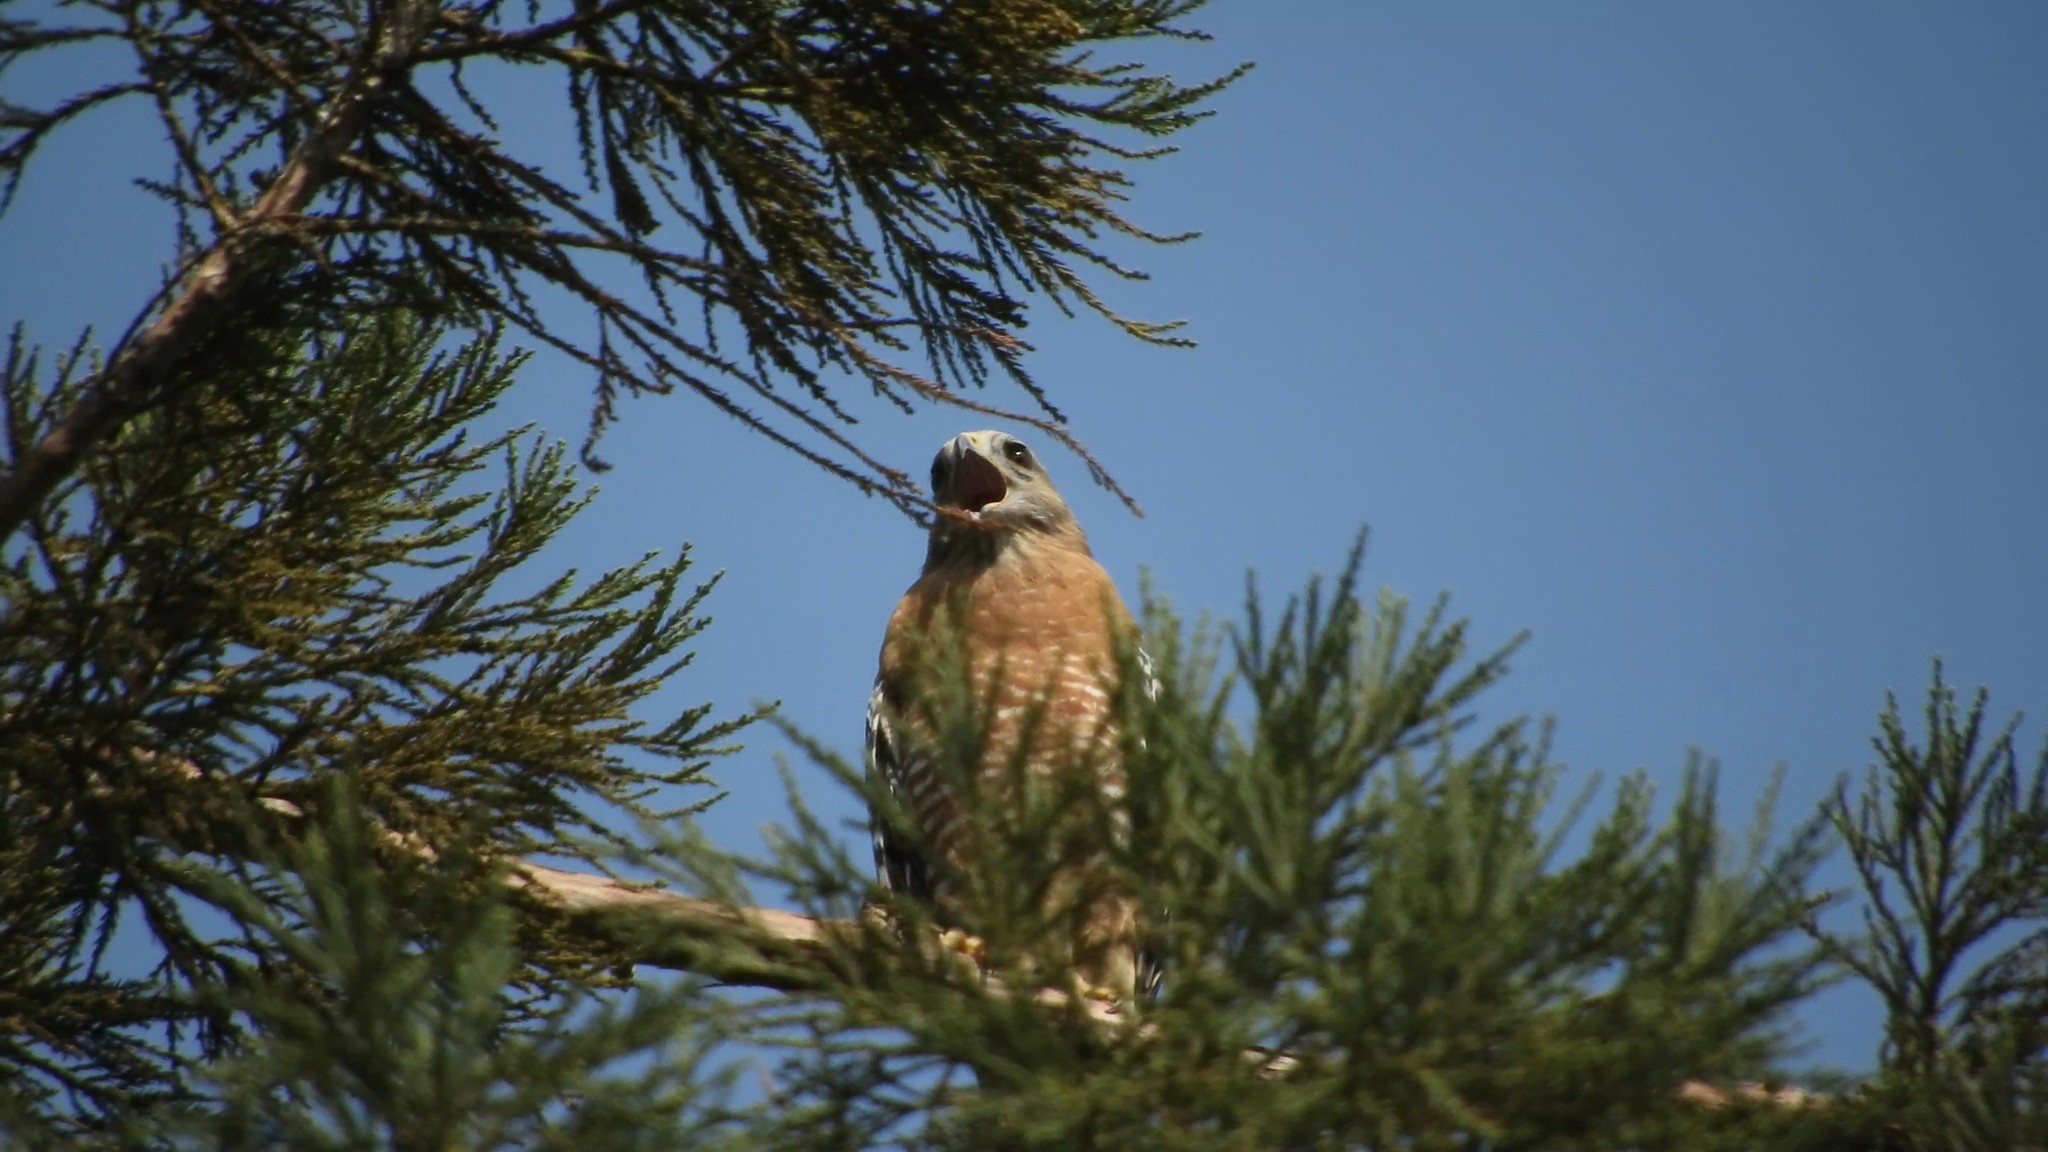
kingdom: Animalia
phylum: Chordata
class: Aves
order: Accipitriformes
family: Accipitridae
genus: Buteo
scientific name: Buteo lineatus
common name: Red-shouldered hawk
